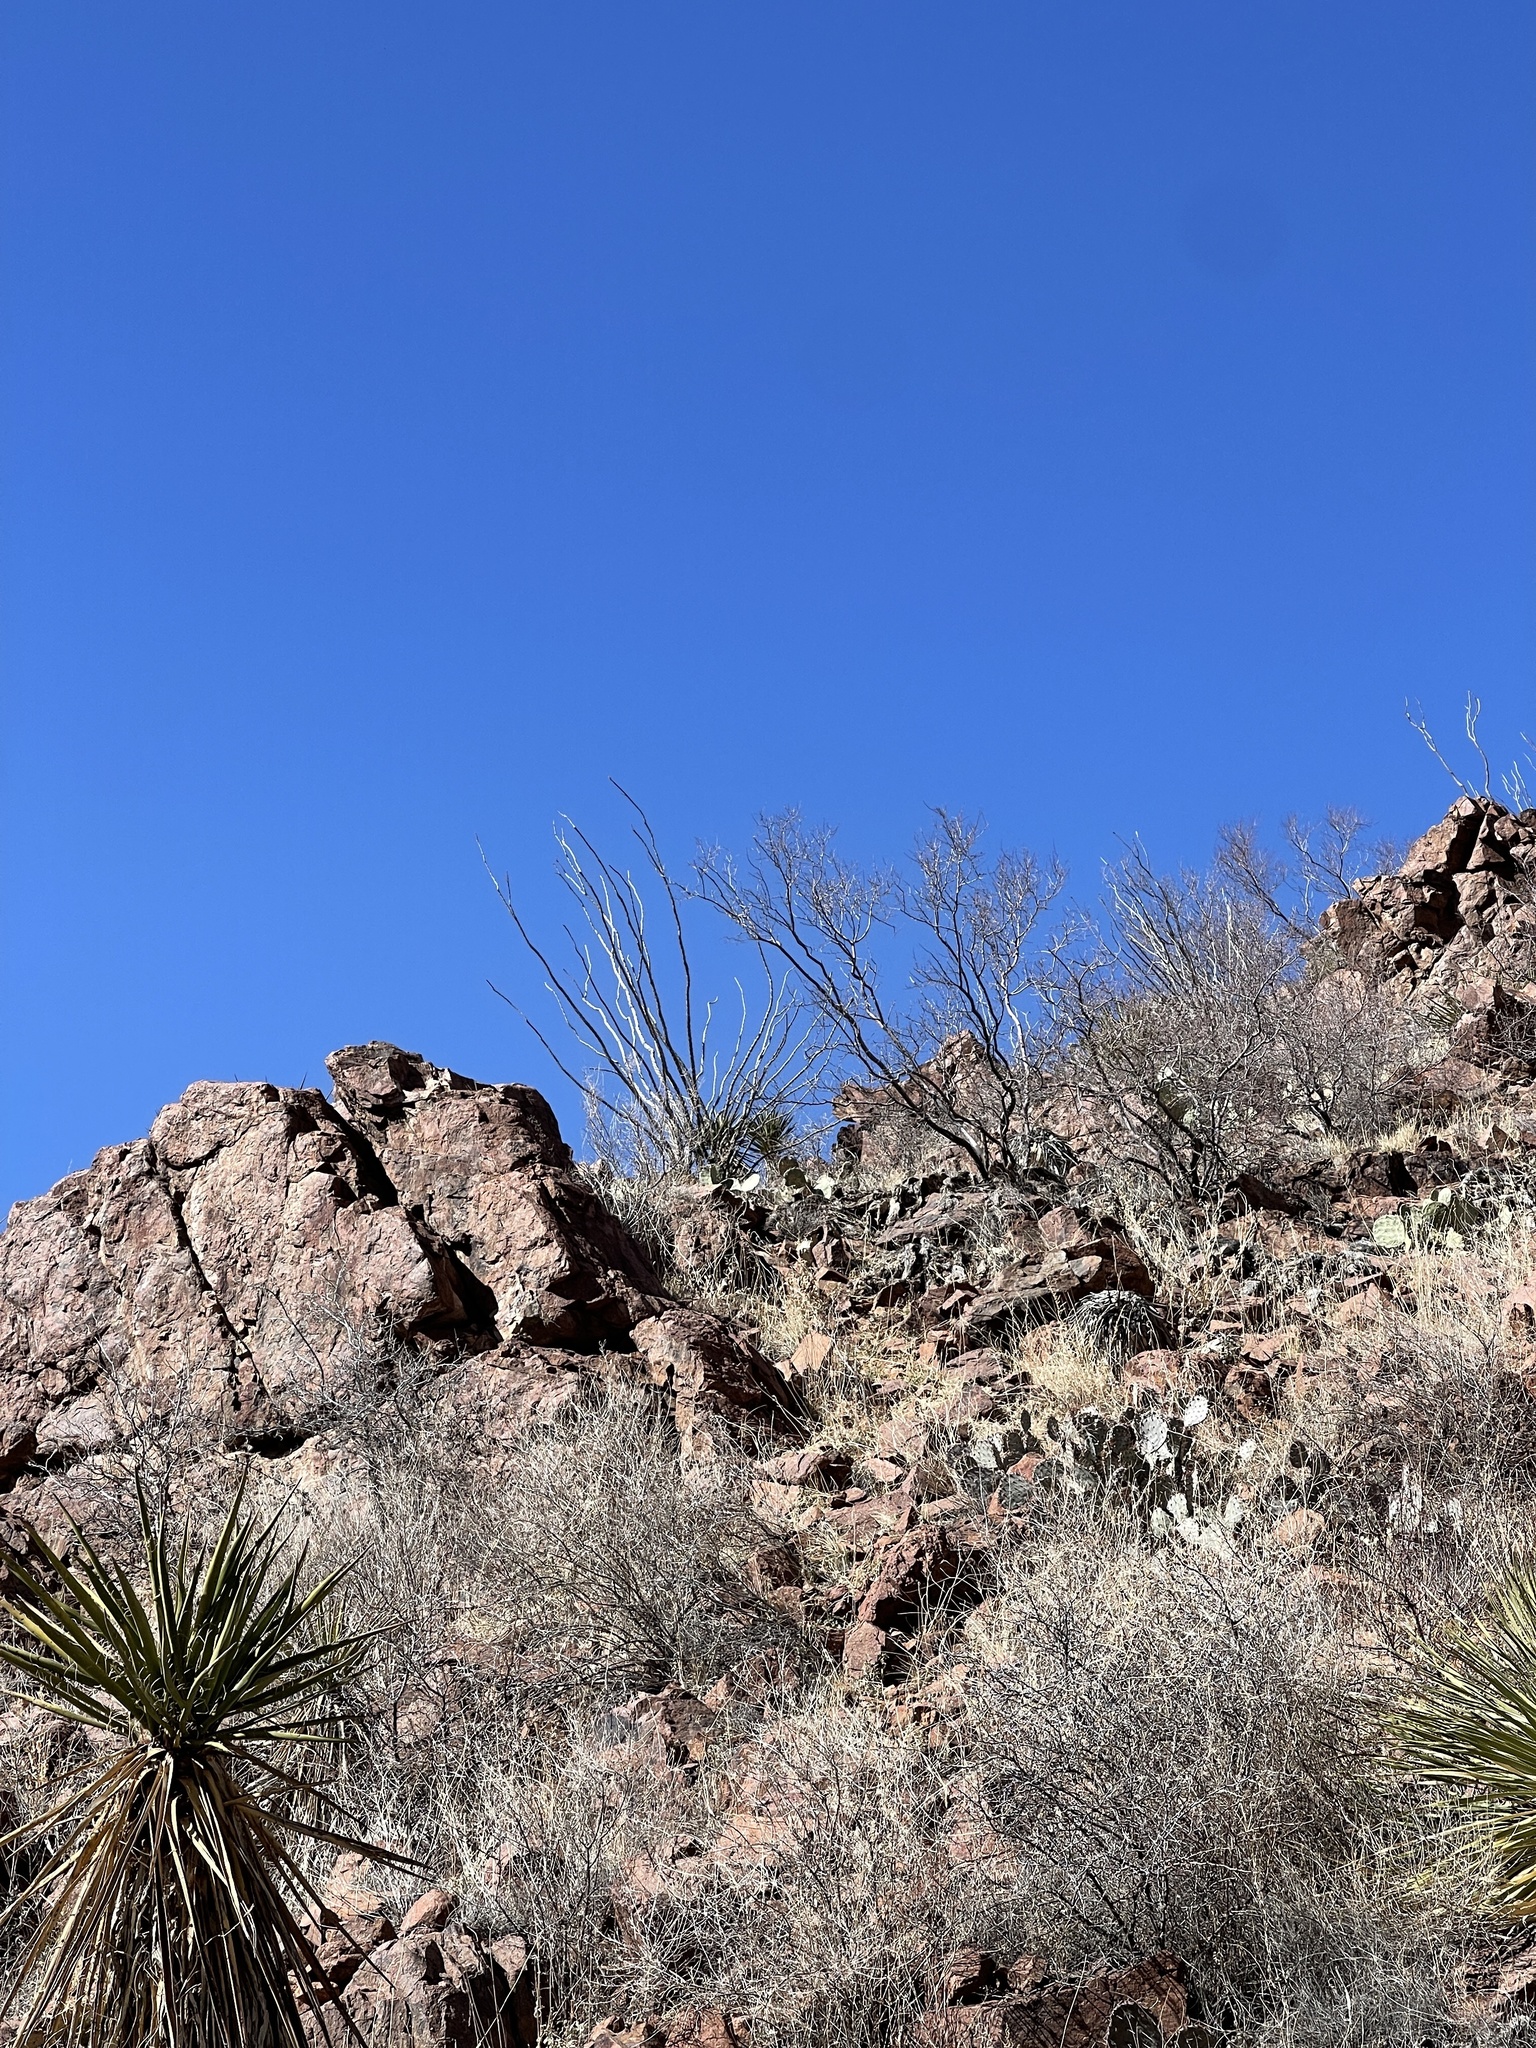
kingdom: Plantae
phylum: Tracheophyta
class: Magnoliopsida
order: Ericales
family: Fouquieriaceae
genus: Fouquieria
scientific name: Fouquieria splendens
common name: Vine-cactus
